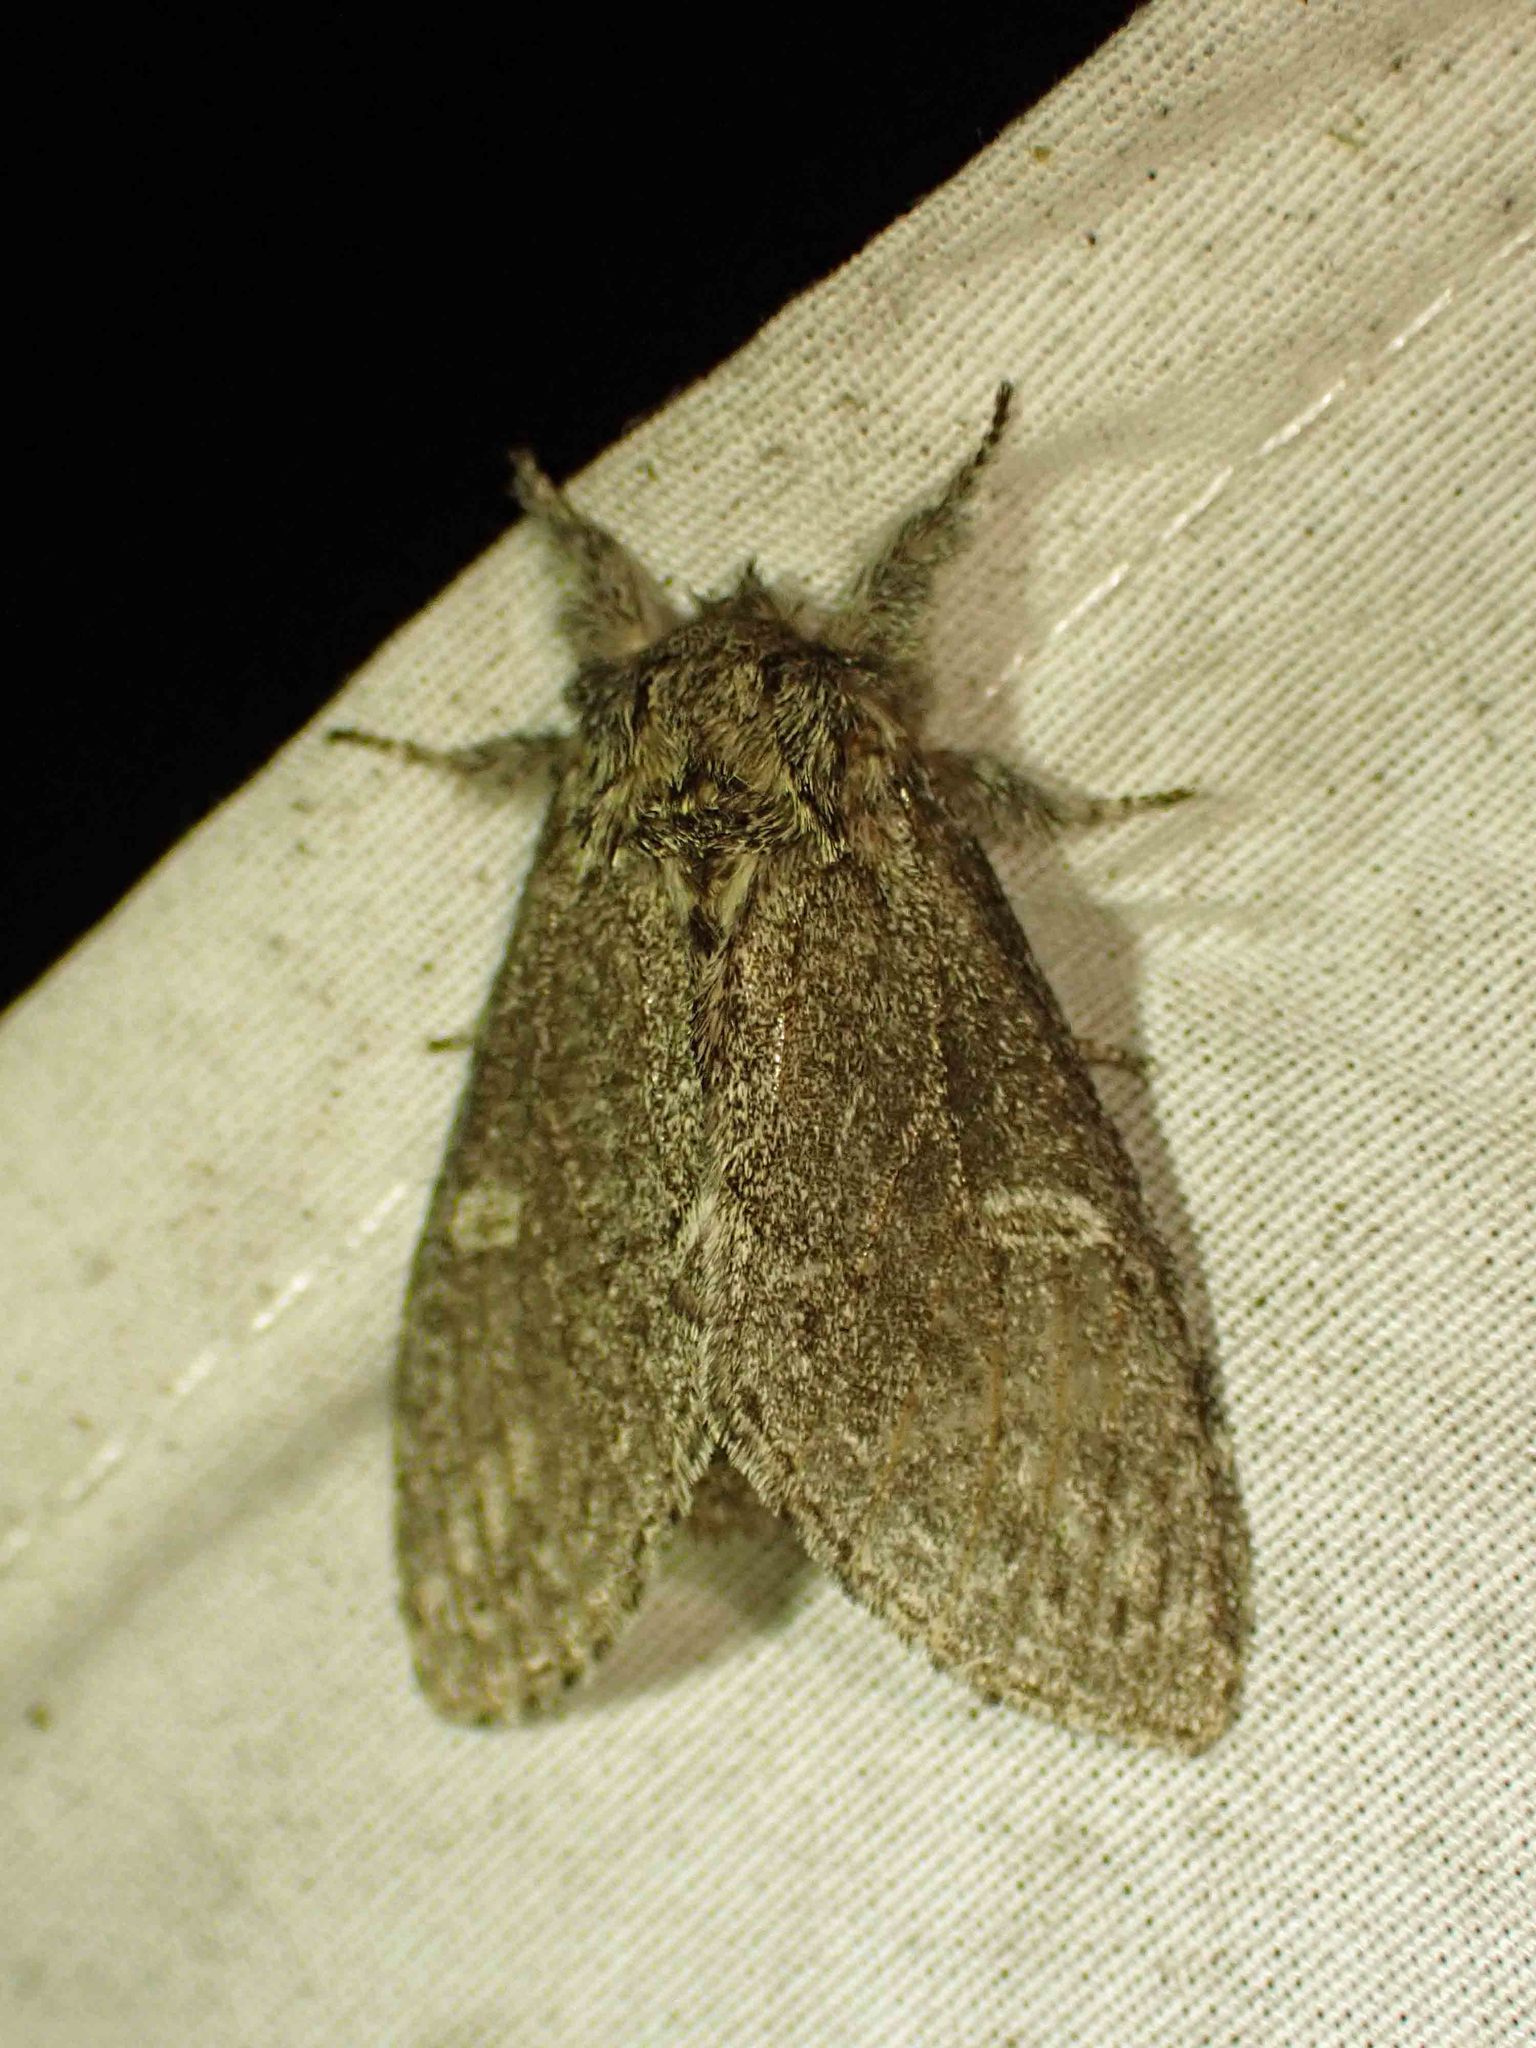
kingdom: Animalia
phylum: Arthropoda
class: Insecta
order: Lepidoptera
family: Notodontidae
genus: Notodonta
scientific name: Notodonta torva
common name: Large dark prominent
